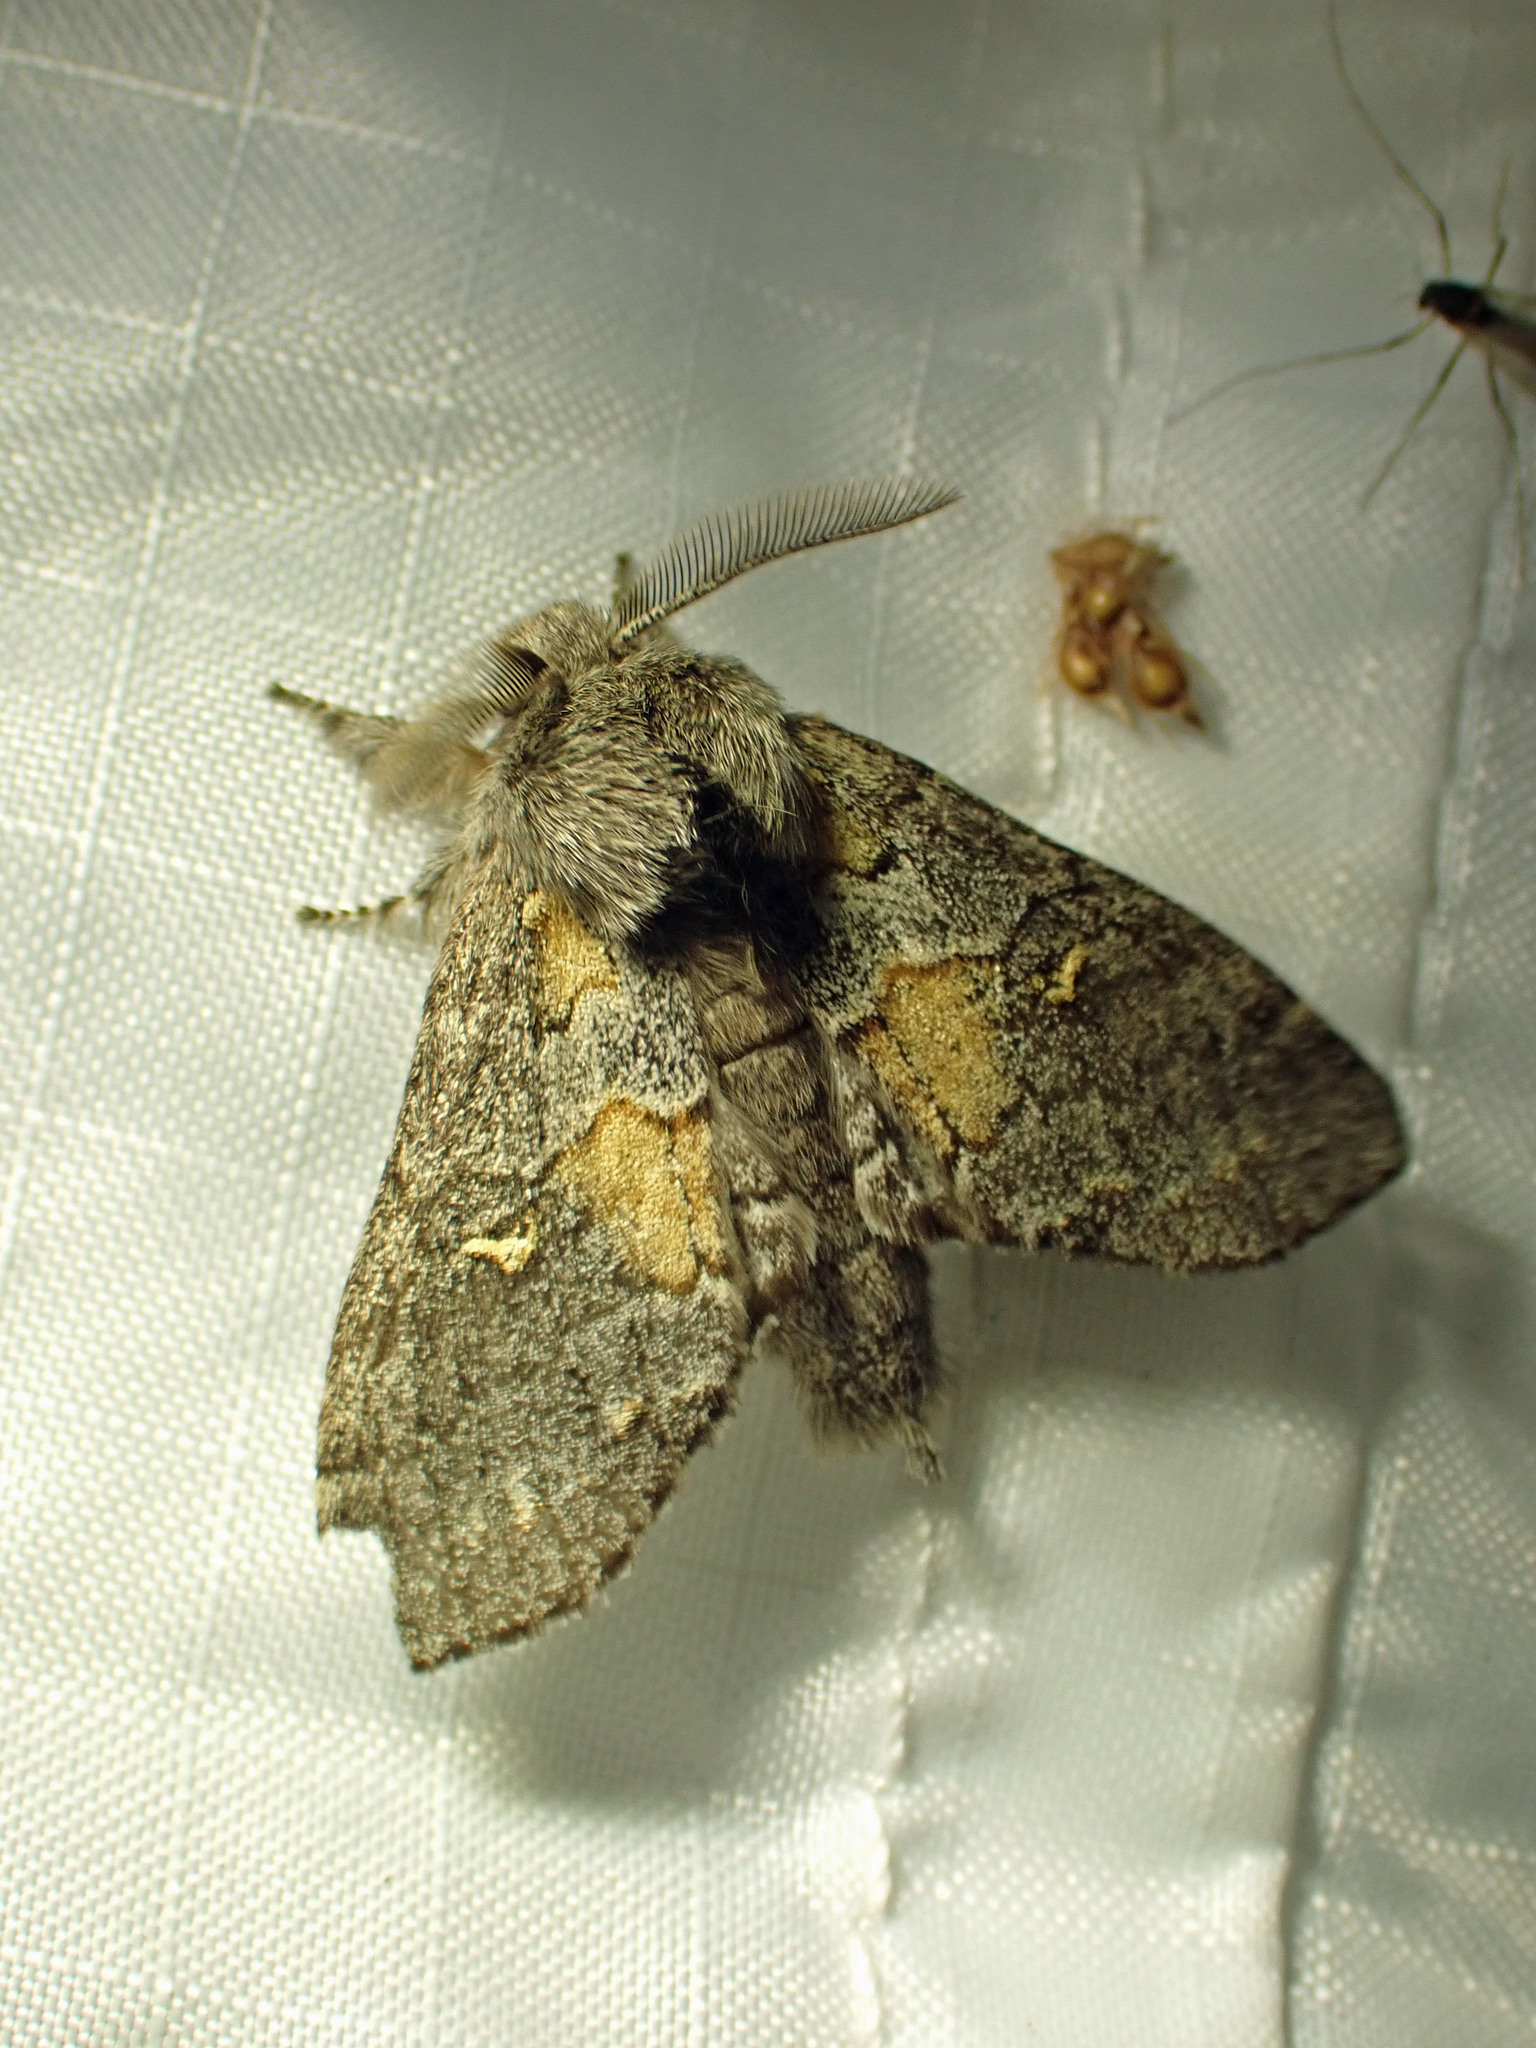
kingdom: Animalia
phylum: Arthropoda
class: Insecta
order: Lepidoptera
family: Notodontidae
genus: Gluphisia
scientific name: Gluphisia avimacula
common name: Four-spotted gluphisia moth
